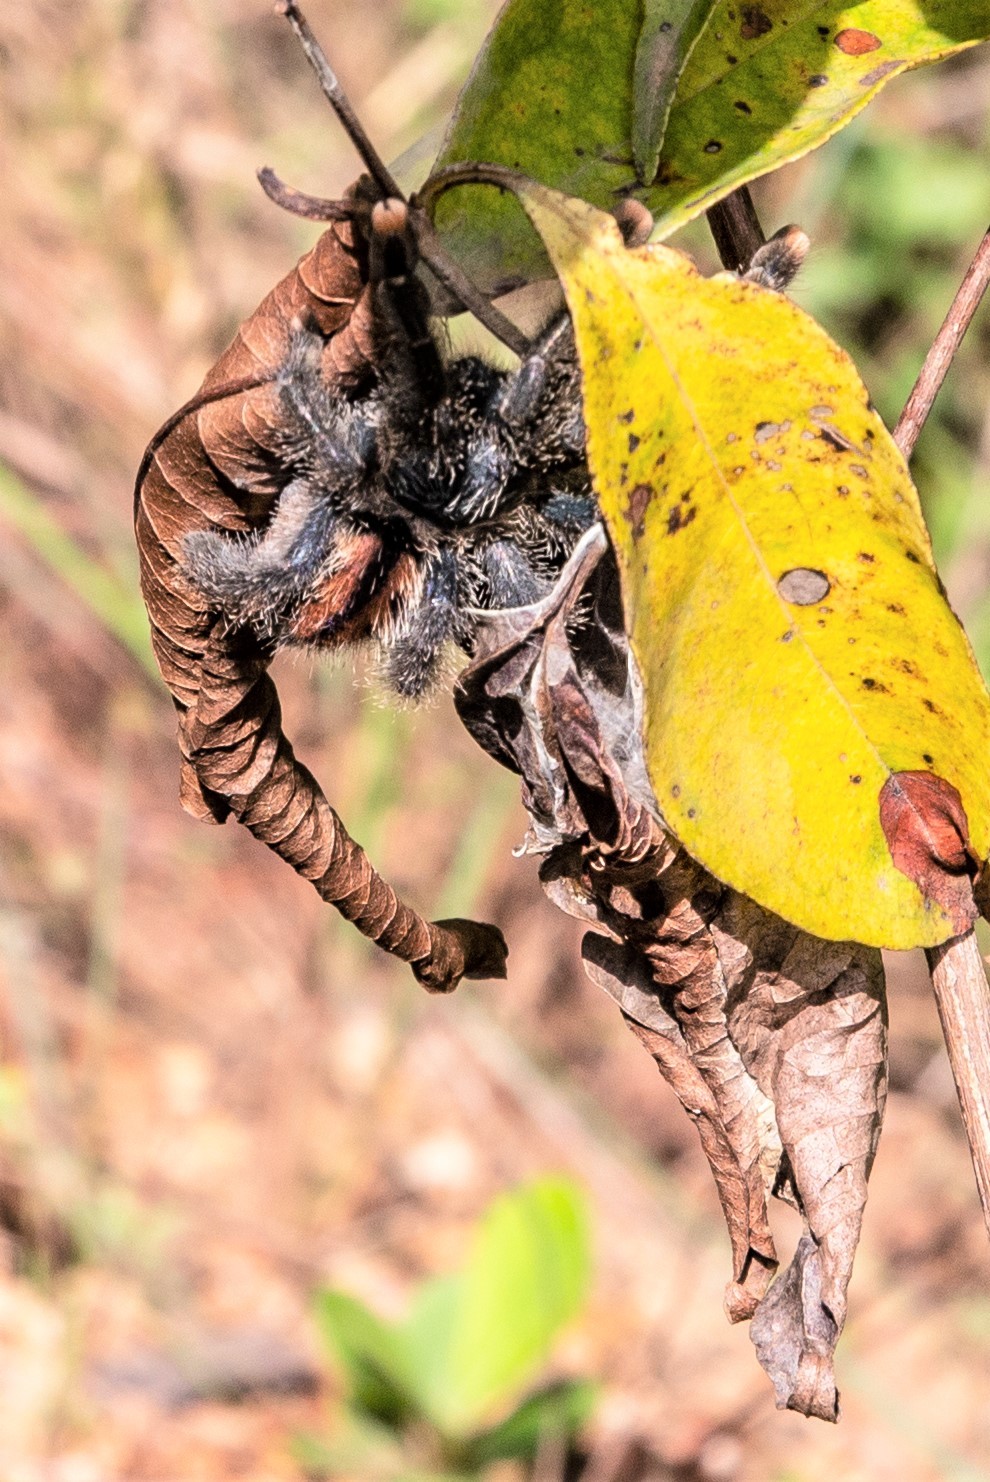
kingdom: Animalia
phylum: Arthropoda
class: Arachnida
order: Araneae
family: Theraphosidae
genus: Avicularia
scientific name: Avicularia avicularia
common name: Tarantula spiders
